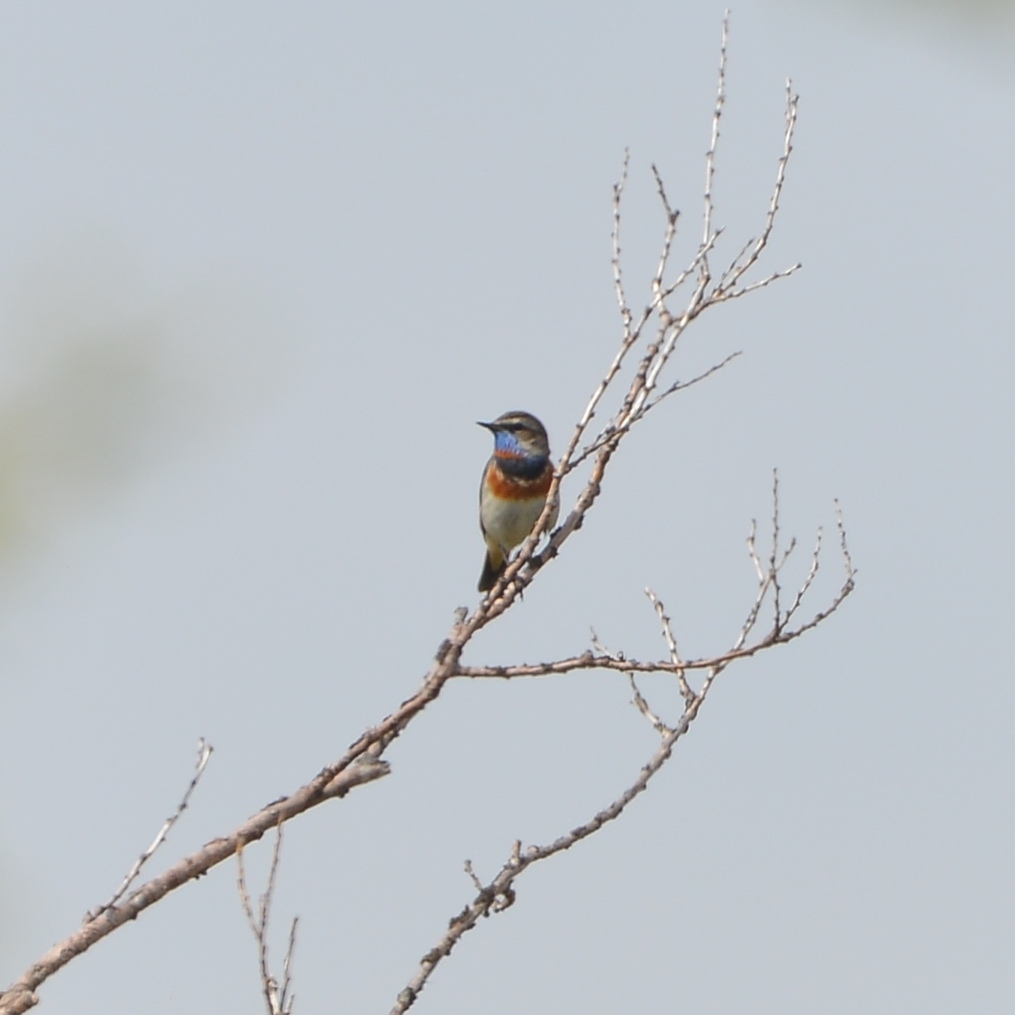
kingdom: Animalia
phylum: Chordata
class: Aves
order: Passeriformes
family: Muscicapidae
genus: Luscinia
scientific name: Luscinia svecica
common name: Bluethroat
